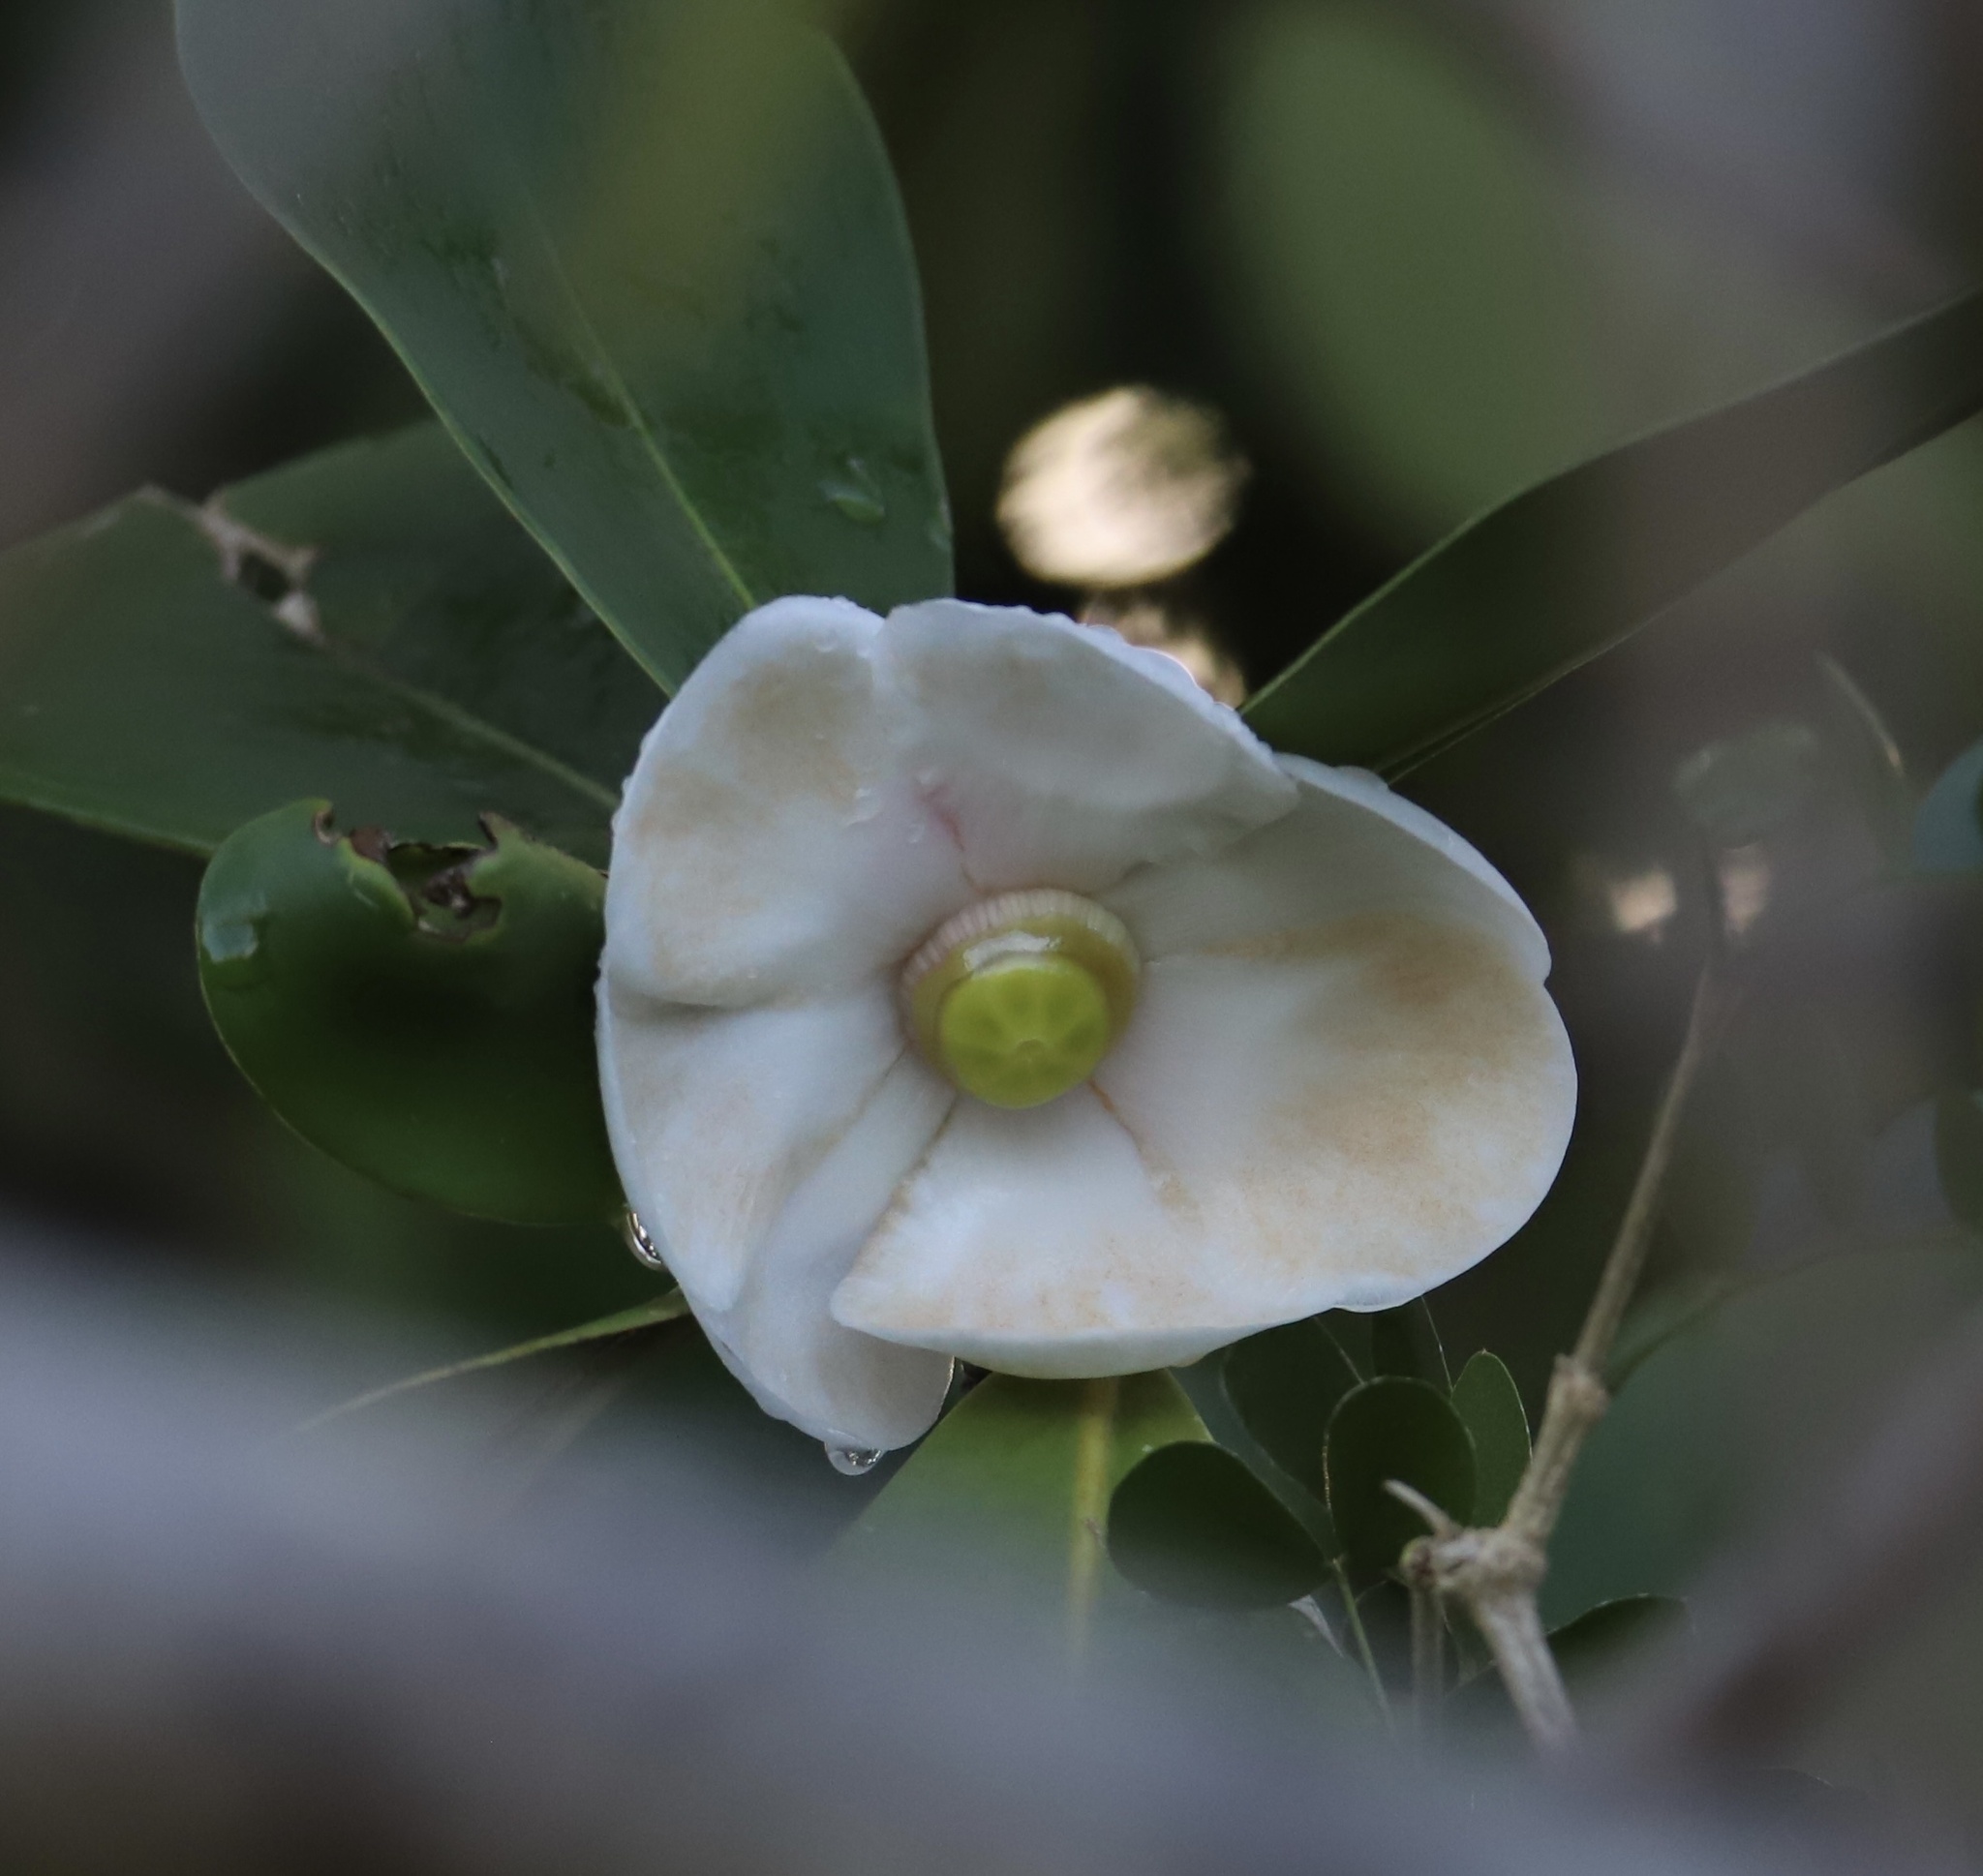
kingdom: Plantae
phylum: Tracheophyta
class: Magnoliopsida
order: Malpighiales
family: Clusiaceae
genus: Clusia
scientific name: Clusia rosea
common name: Scotch attorney
